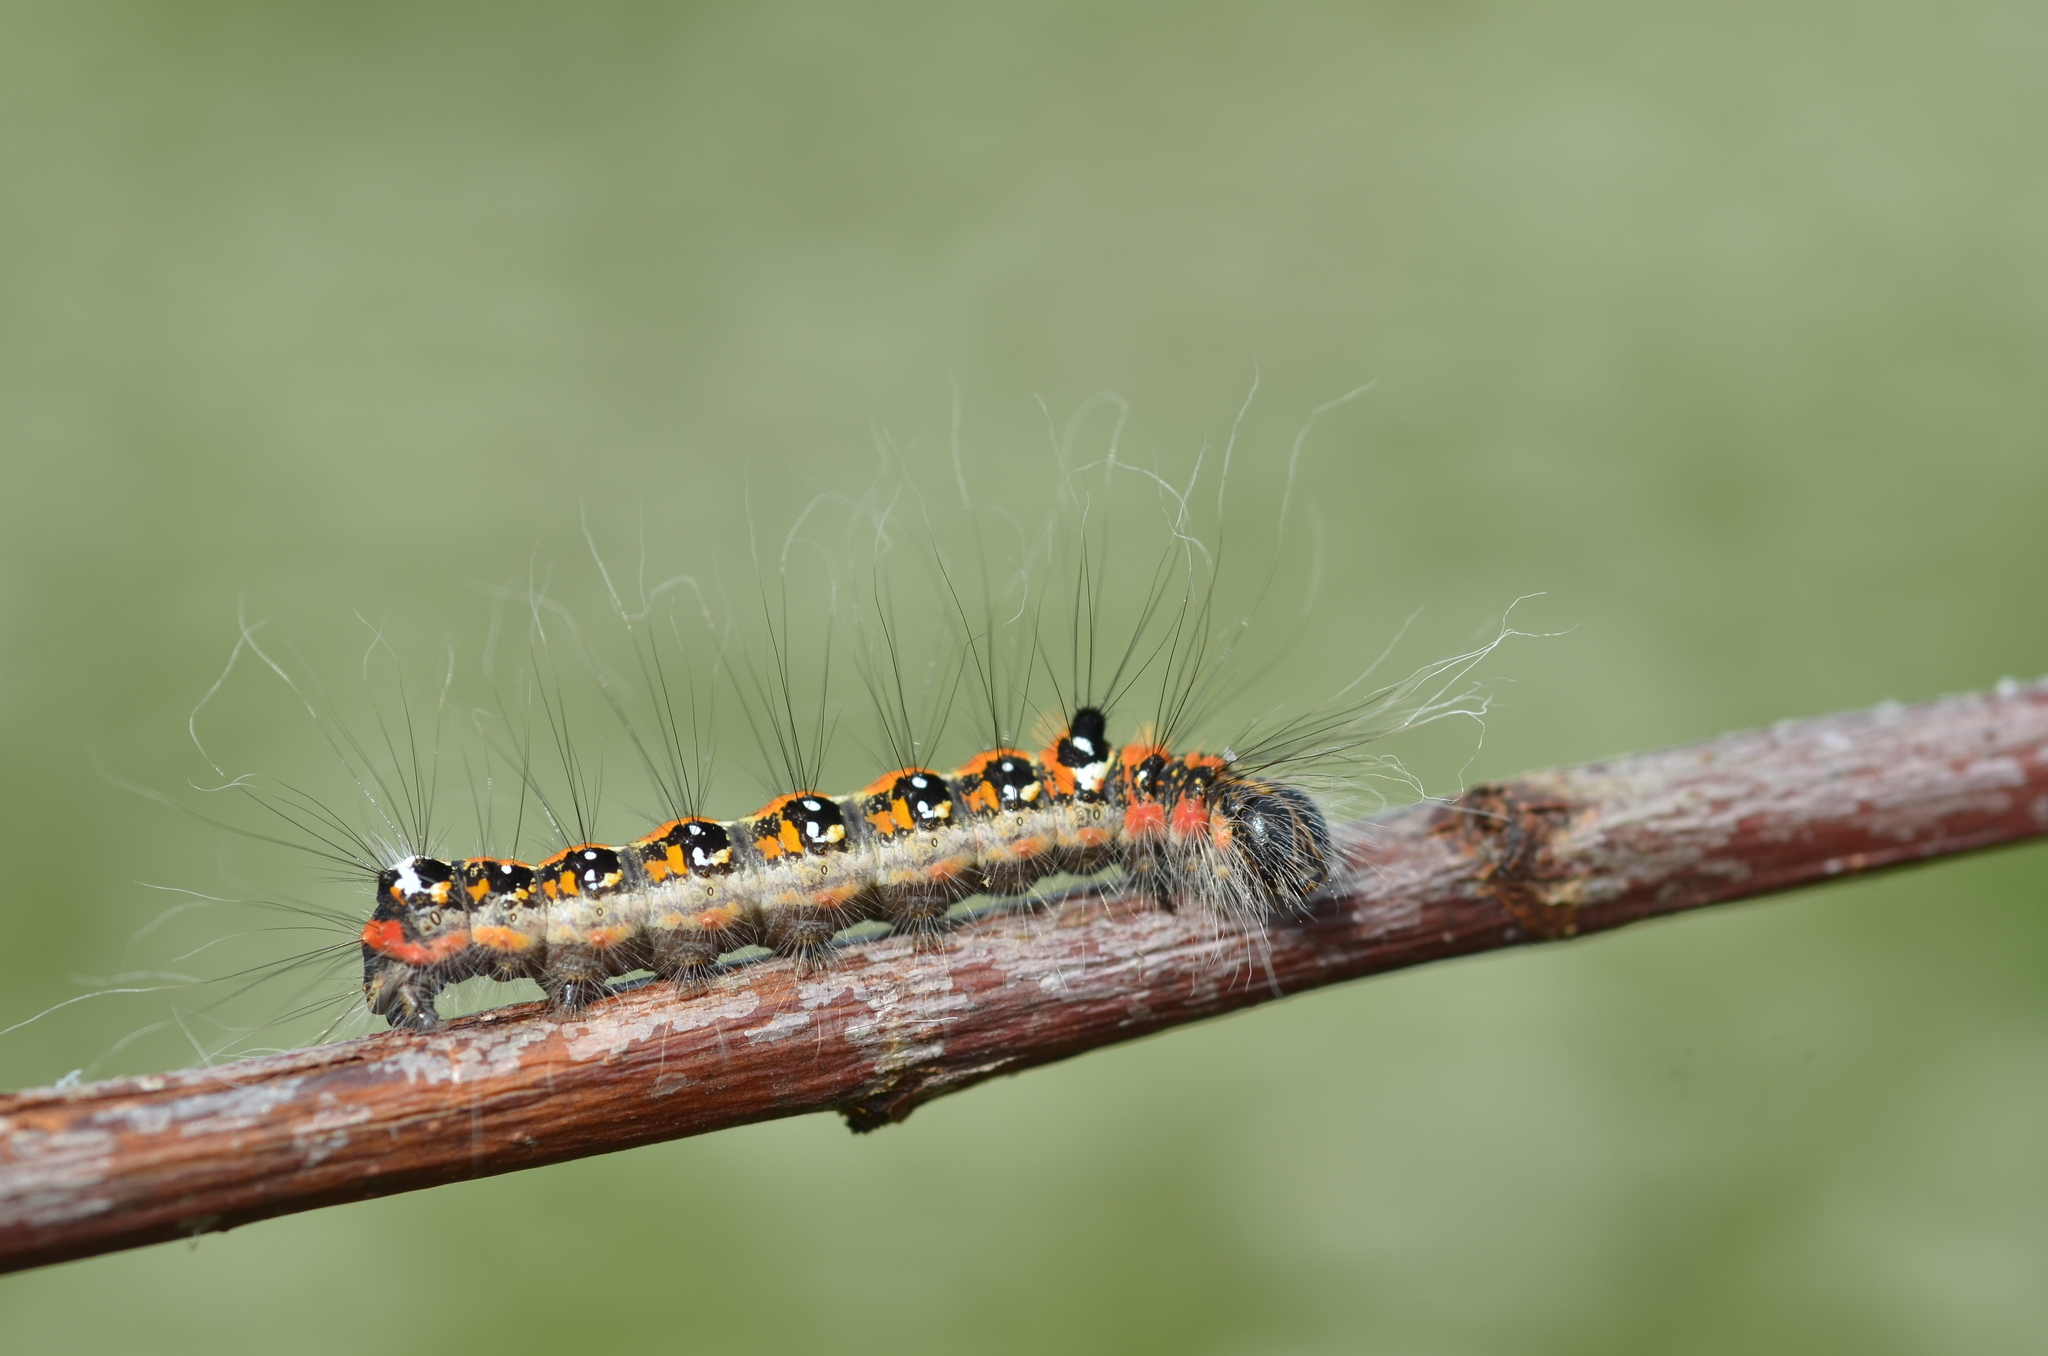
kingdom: Animalia
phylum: Arthropoda
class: Insecta
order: Lepidoptera
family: Noctuidae
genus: Acronicta
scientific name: Acronicta tridens
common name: Dark dagger
